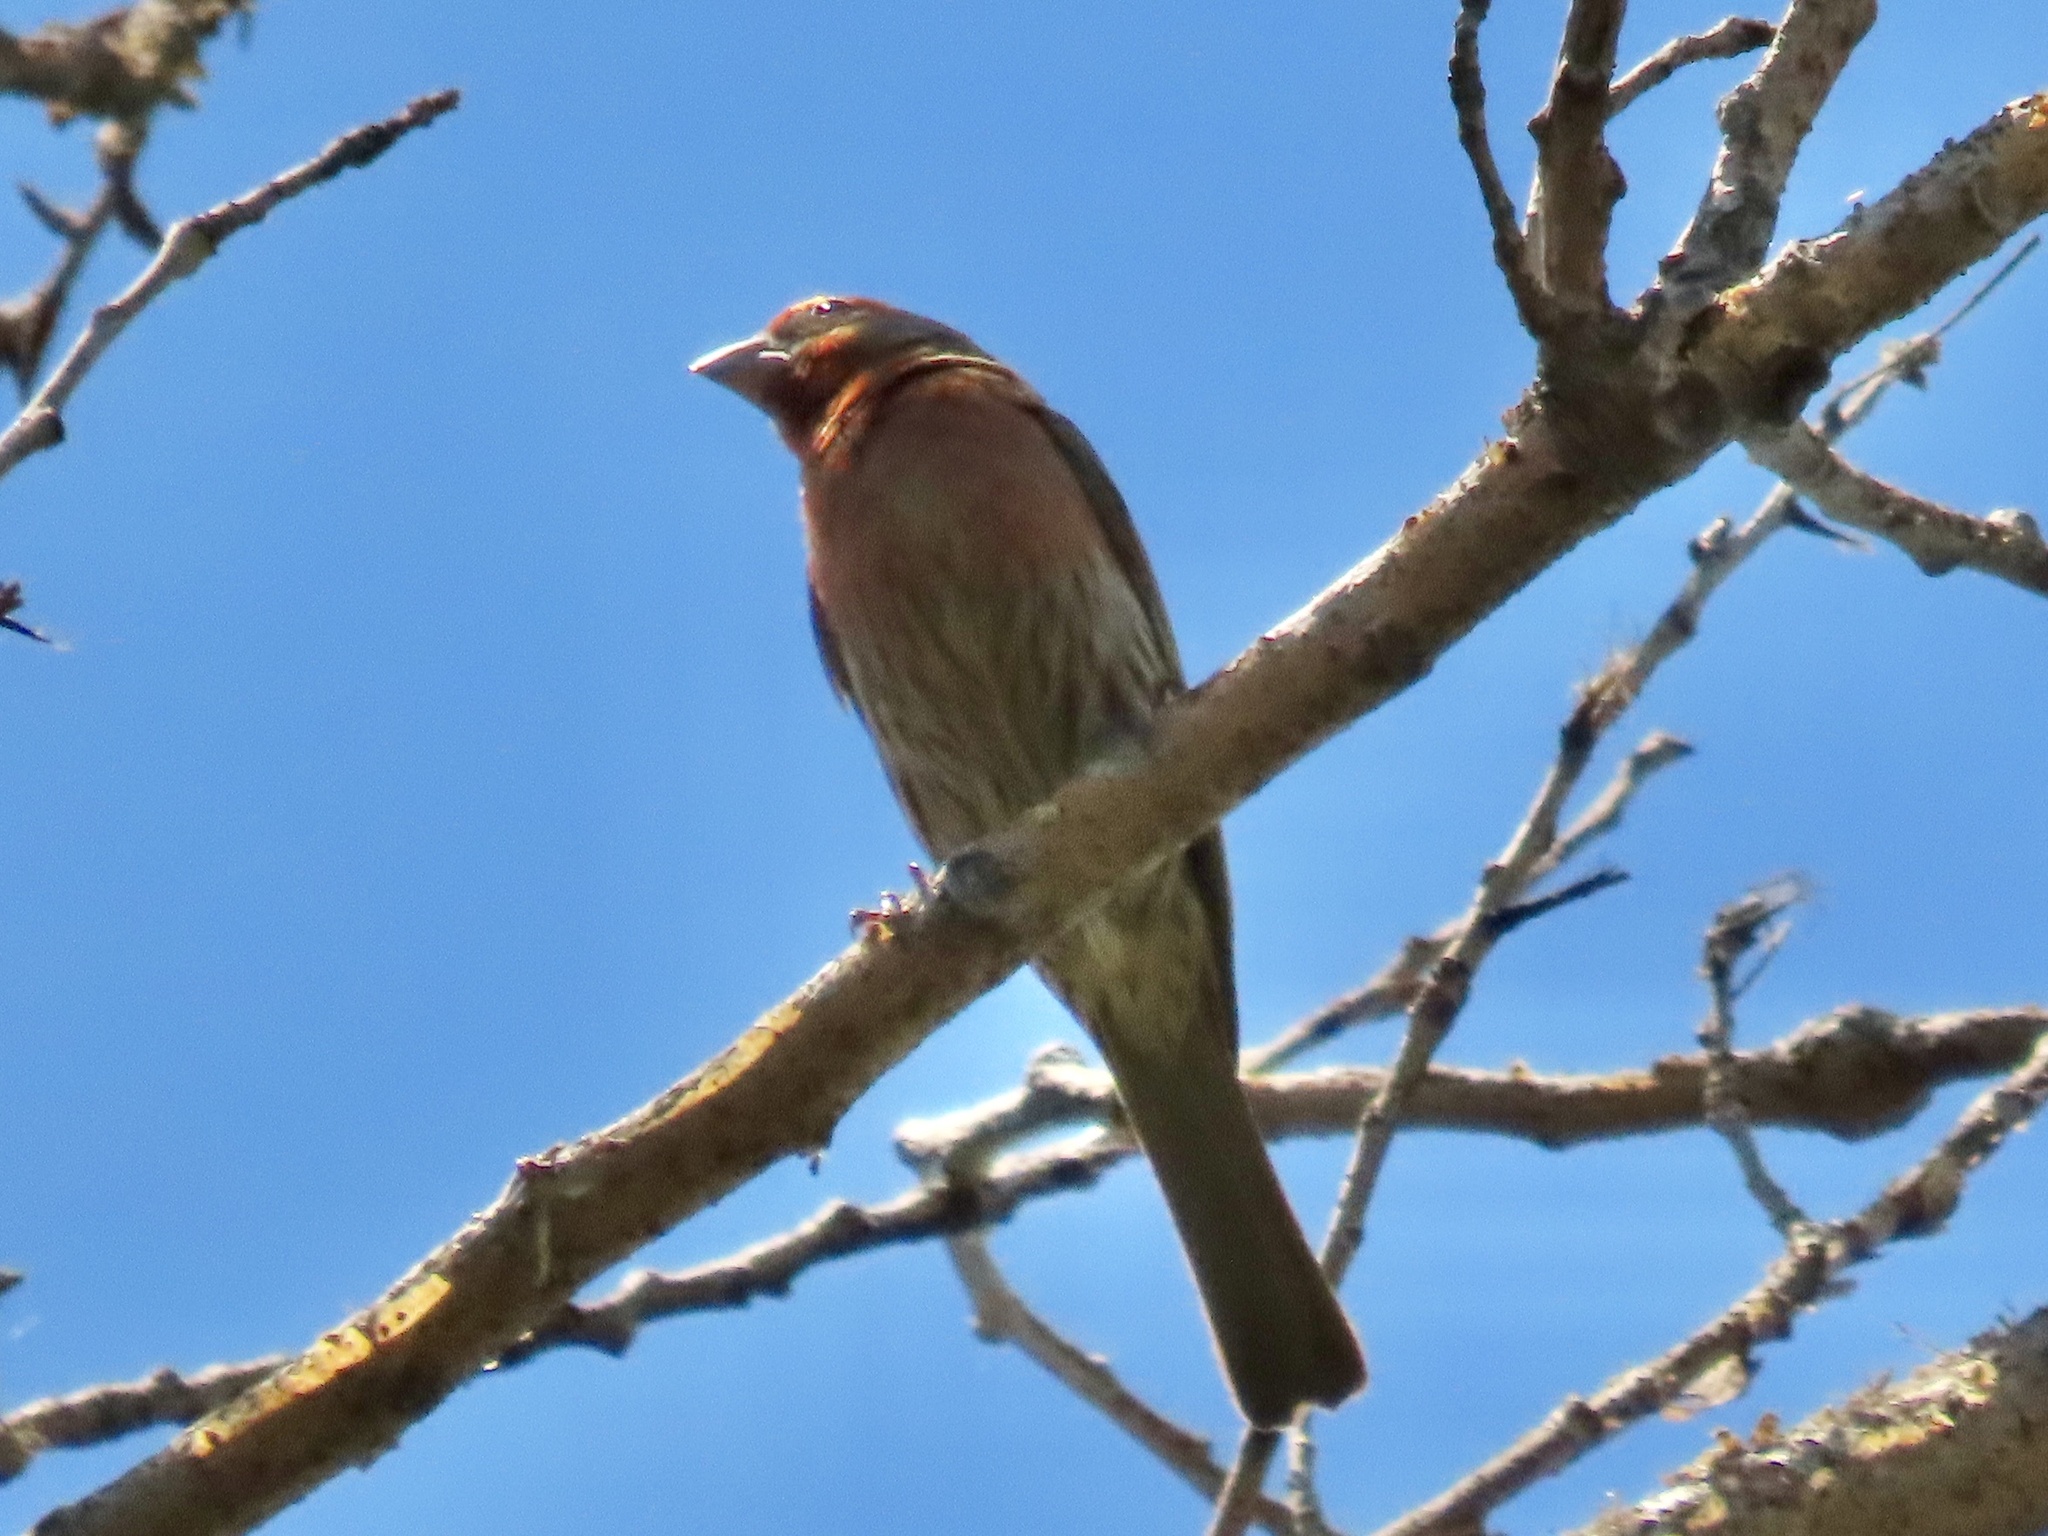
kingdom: Animalia
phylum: Chordata
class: Aves
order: Passeriformes
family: Fringillidae
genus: Haemorhous
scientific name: Haemorhous mexicanus
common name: House finch
